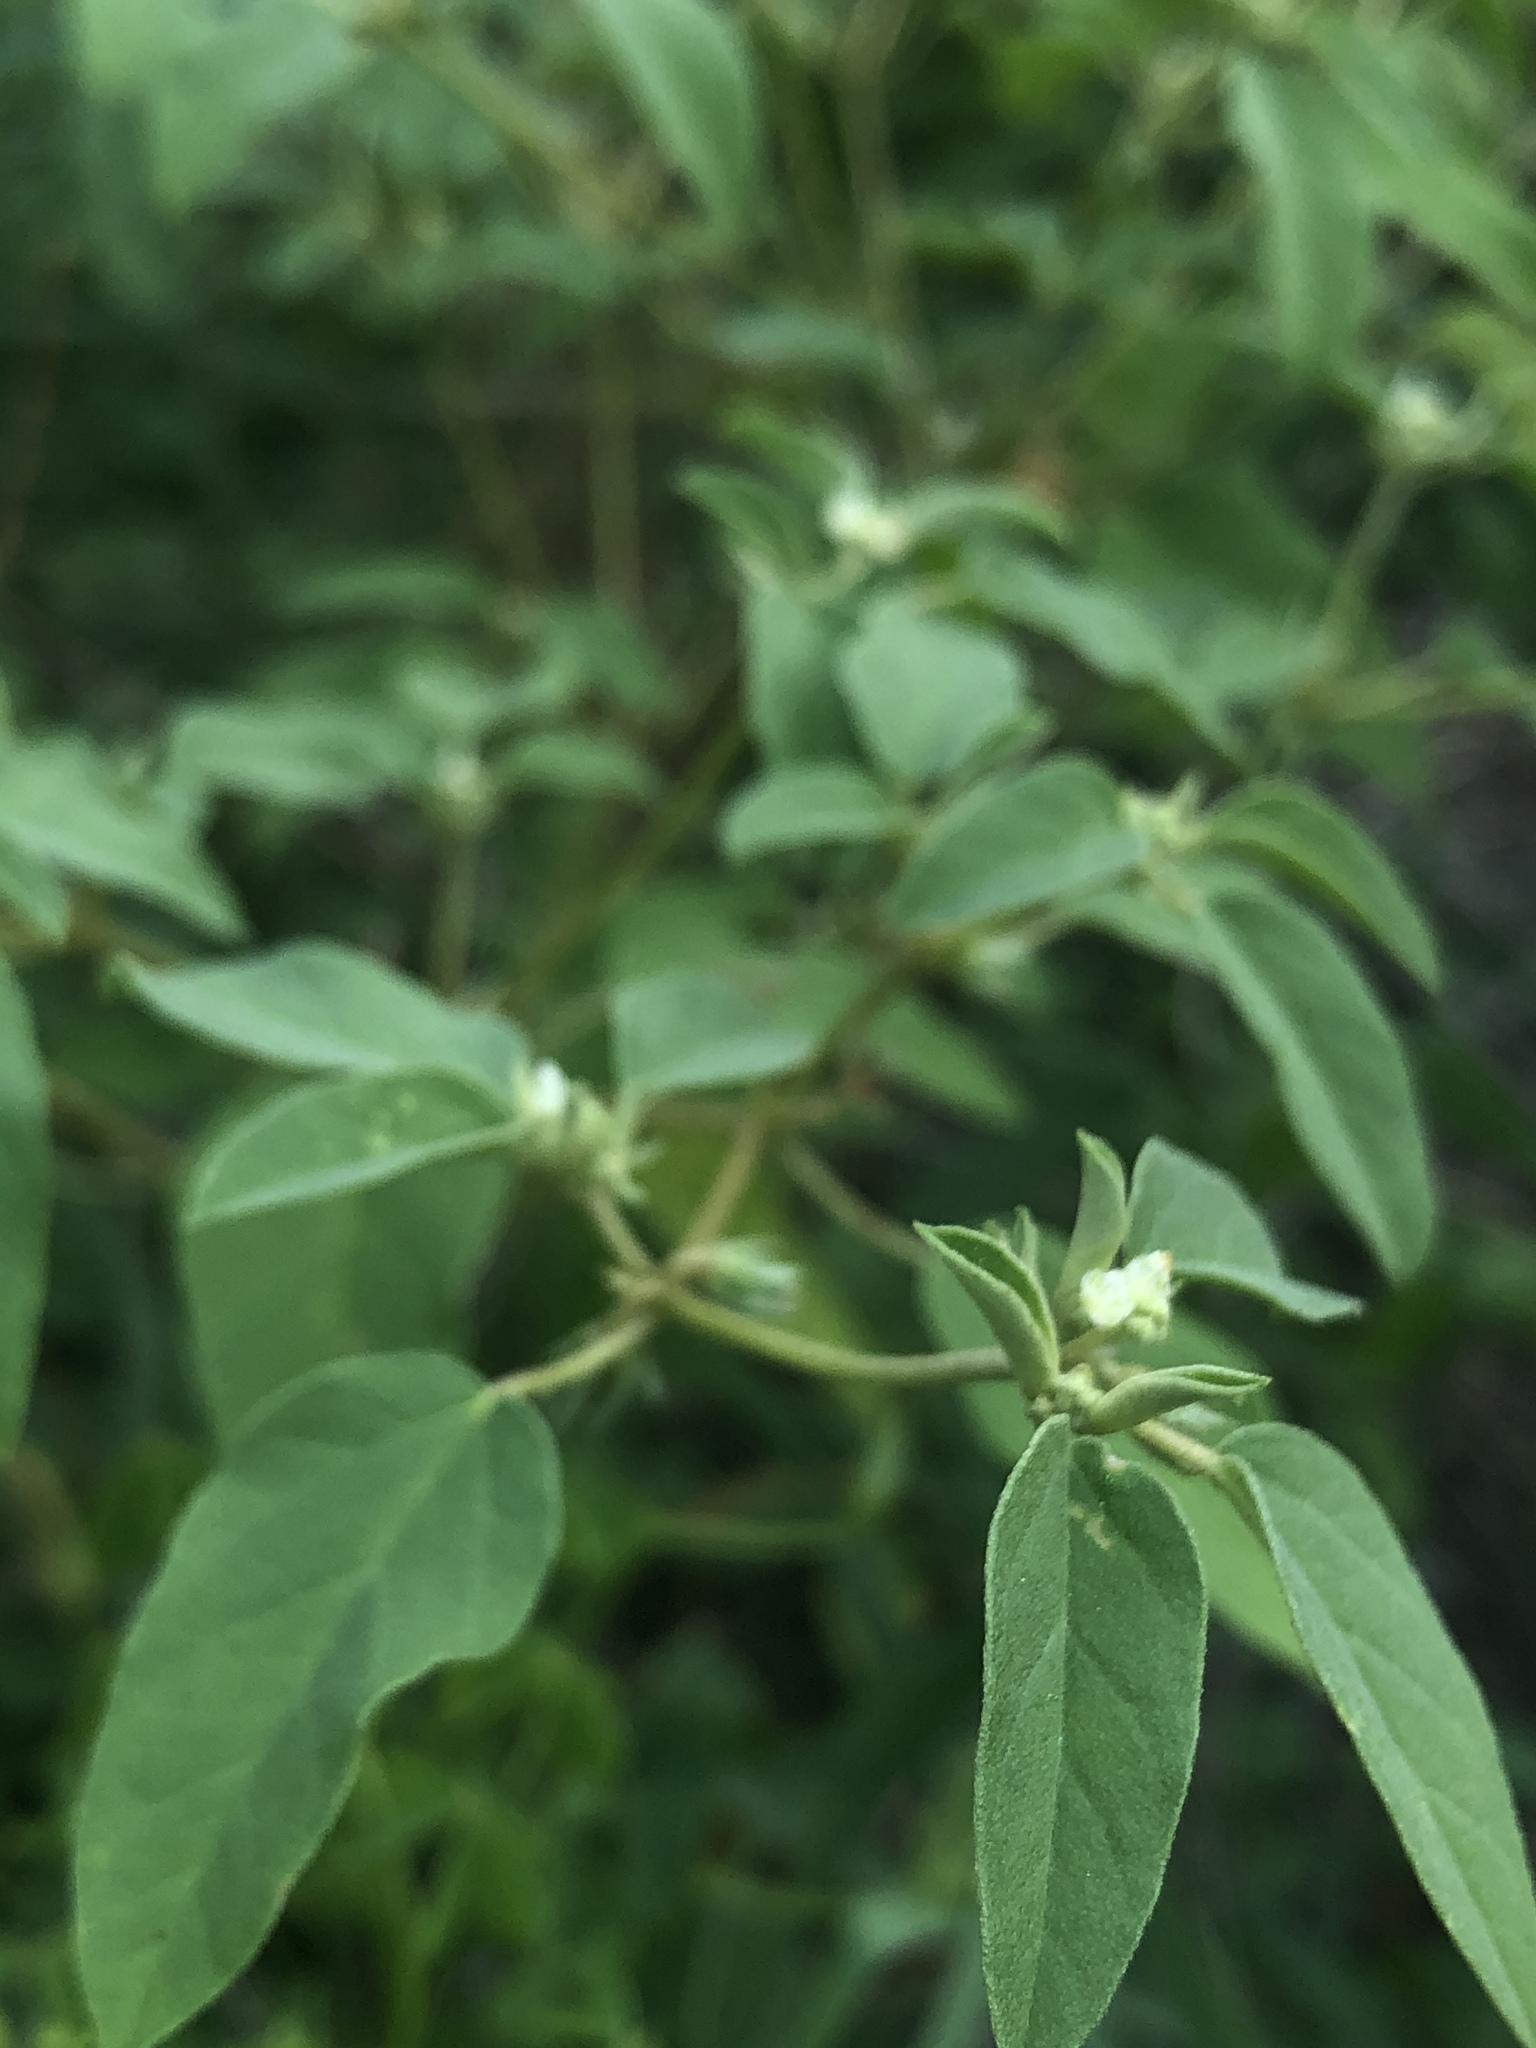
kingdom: Plantae
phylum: Tracheophyta
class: Magnoliopsida
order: Malpighiales
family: Euphorbiaceae
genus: Croton
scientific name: Croton monanthogynus
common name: One-seed croton
